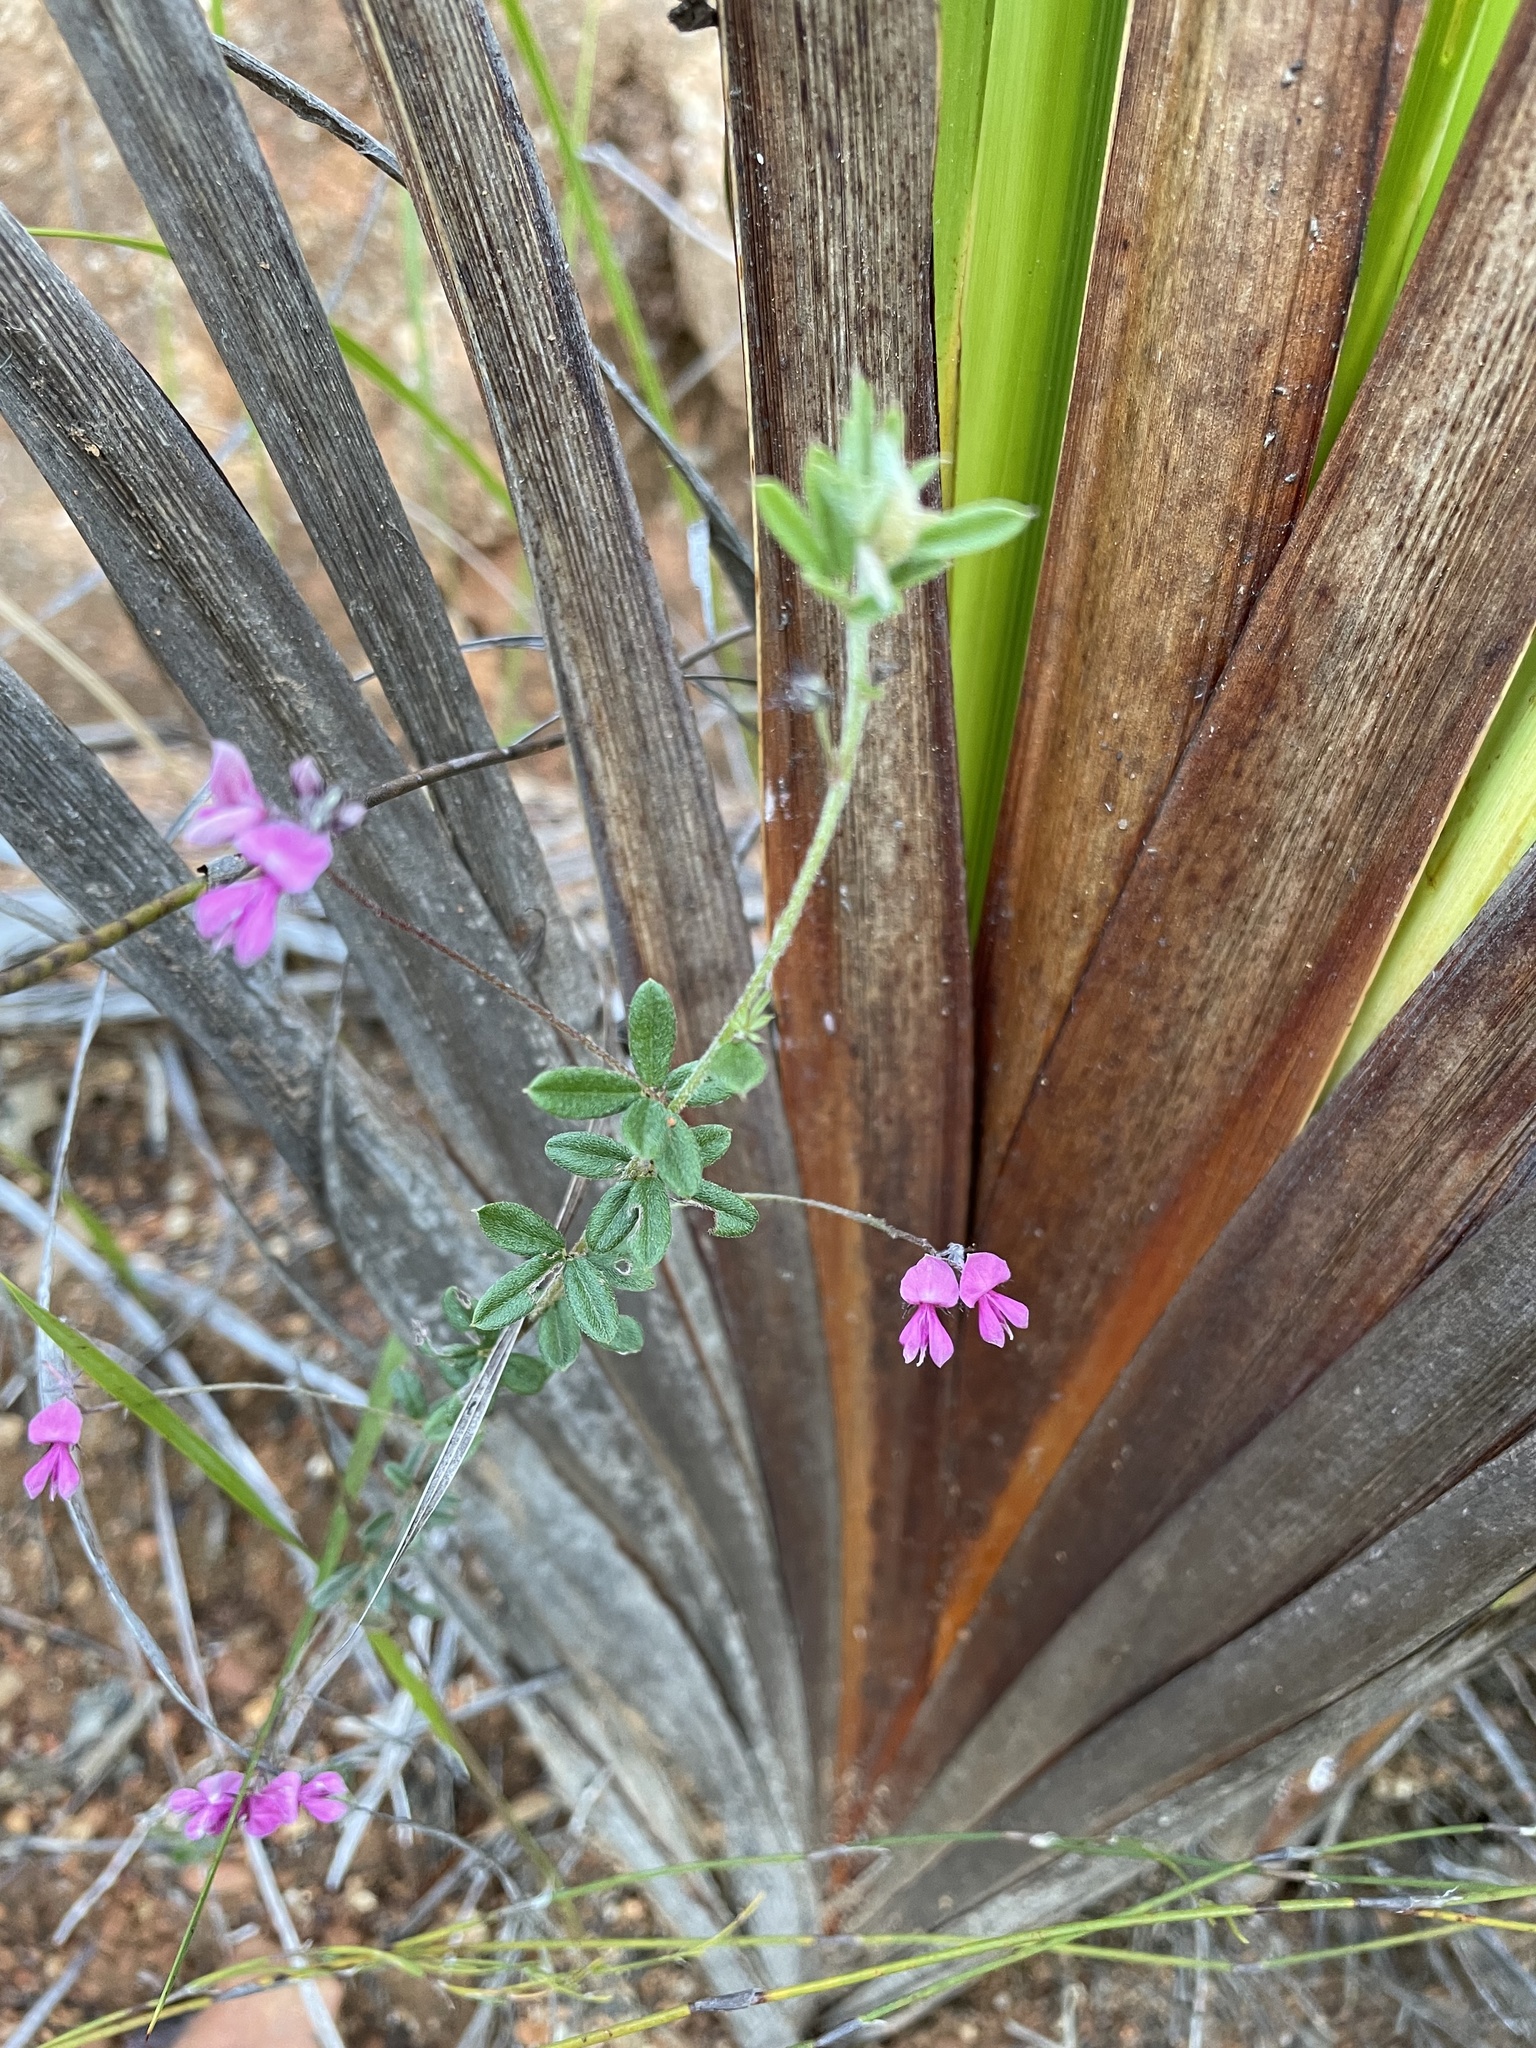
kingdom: Plantae
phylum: Tracheophyta
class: Magnoliopsida
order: Fabales
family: Fabaceae
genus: Indigofera
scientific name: Indigofera filiformis
